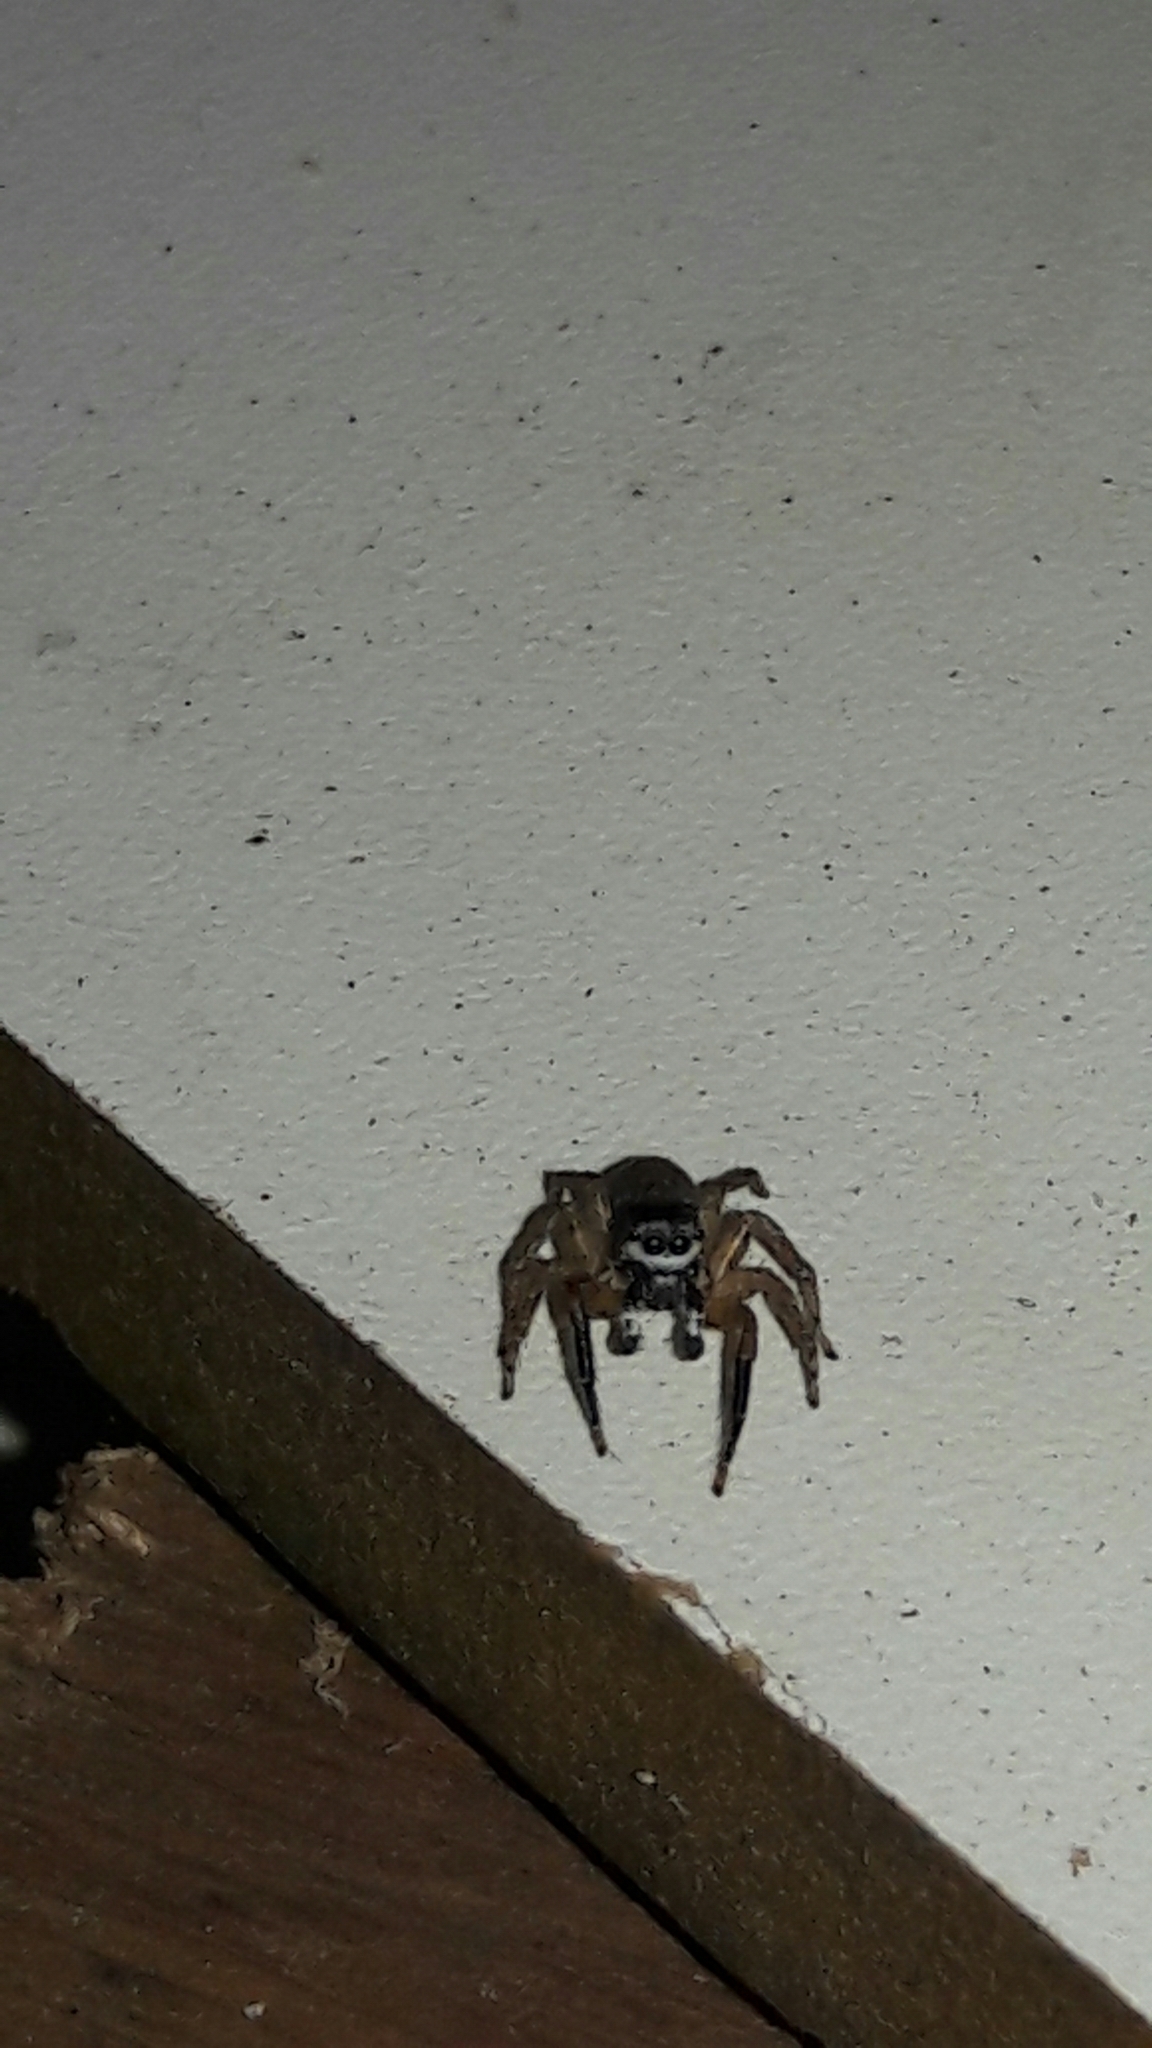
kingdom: Animalia
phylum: Arthropoda
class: Arachnida
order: Araneae
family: Salticidae
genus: Sumampattus
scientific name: Sumampattus quinqueradiatus
